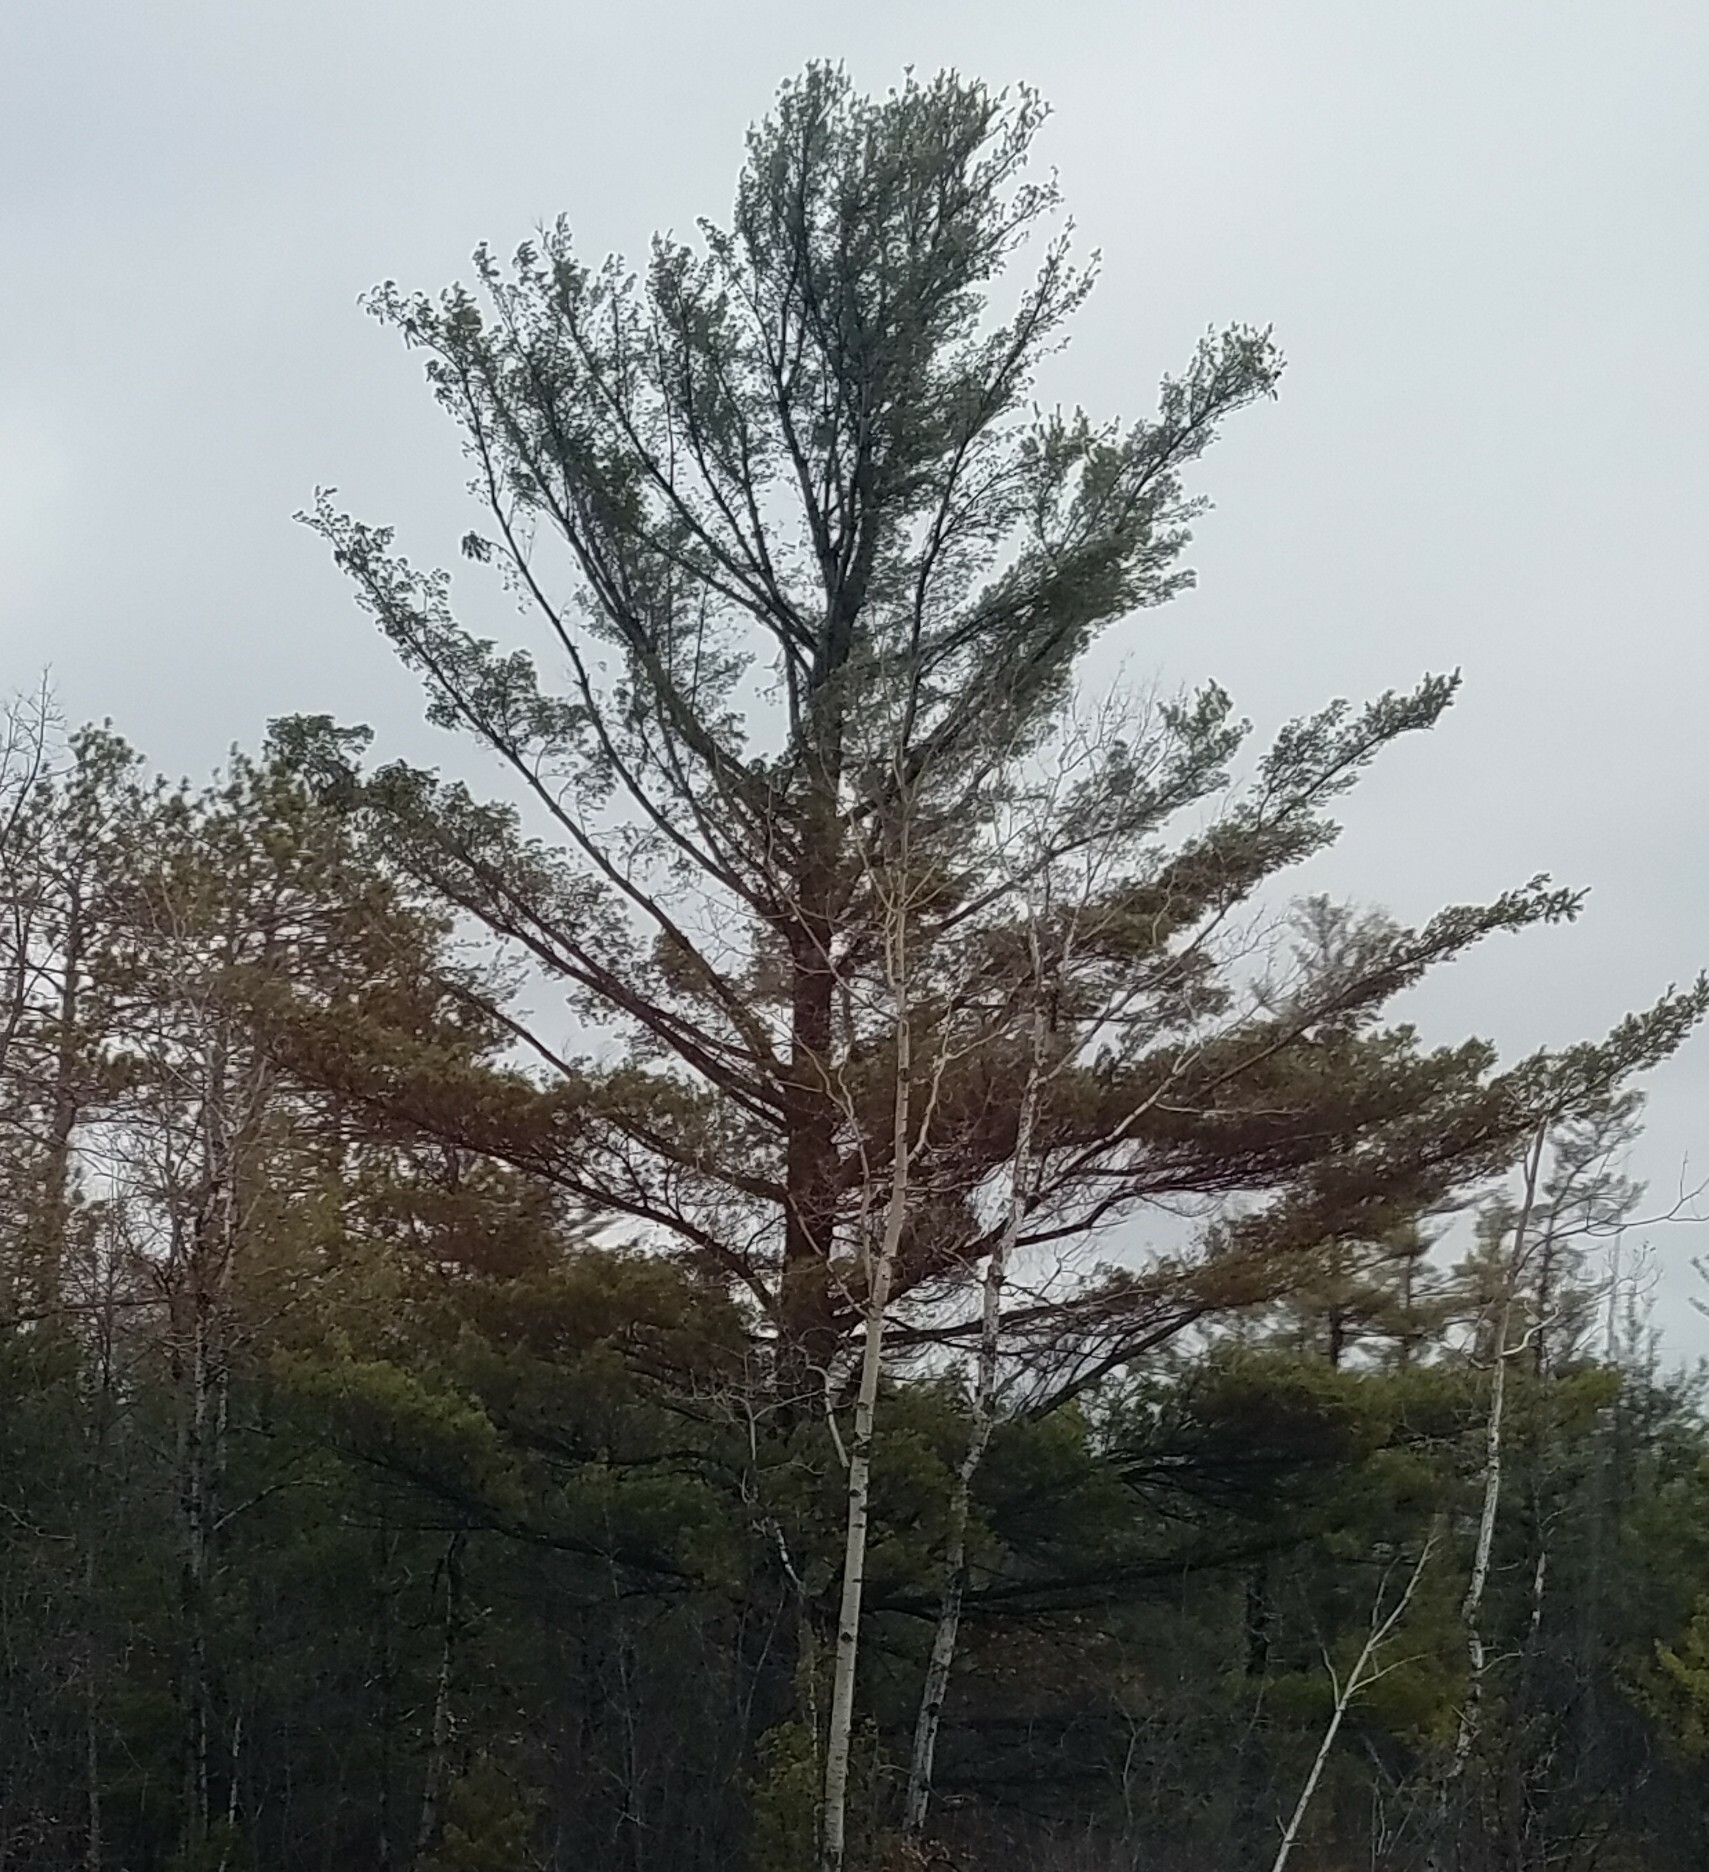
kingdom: Plantae
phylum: Tracheophyta
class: Pinopsida
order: Pinales
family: Pinaceae
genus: Pinus
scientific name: Pinus strobus
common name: Weymouth pine
